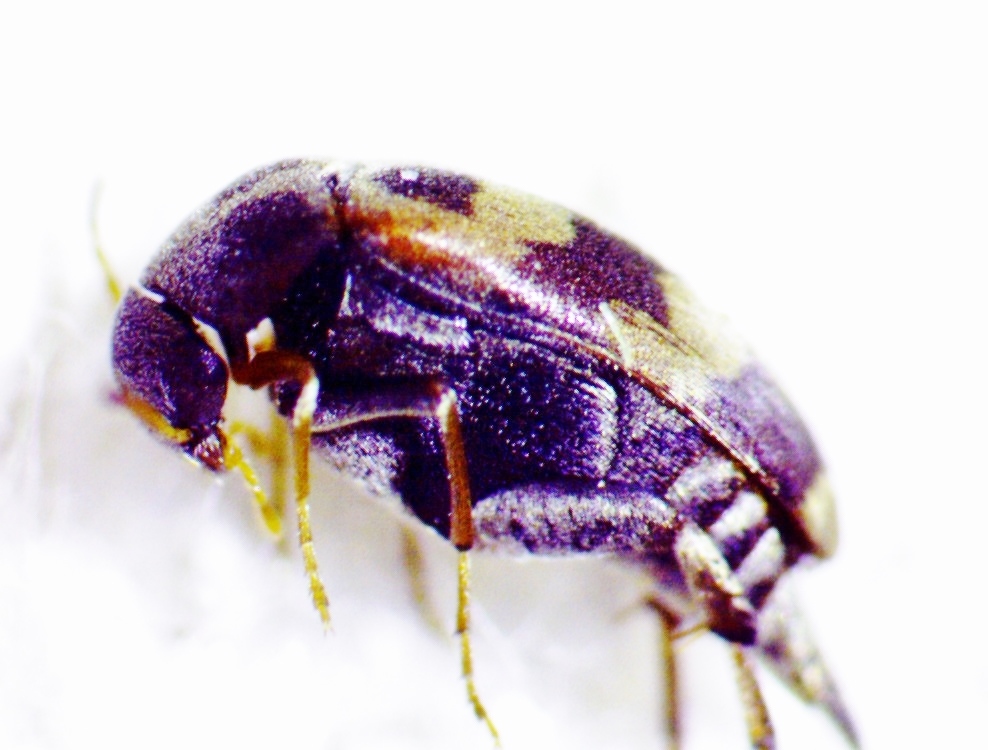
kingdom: Animalia
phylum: Arthropoda
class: Insecta
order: Coleoptera
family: Mordellidae
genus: Falsomordellistena
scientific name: Falsomordellistena pubescens
